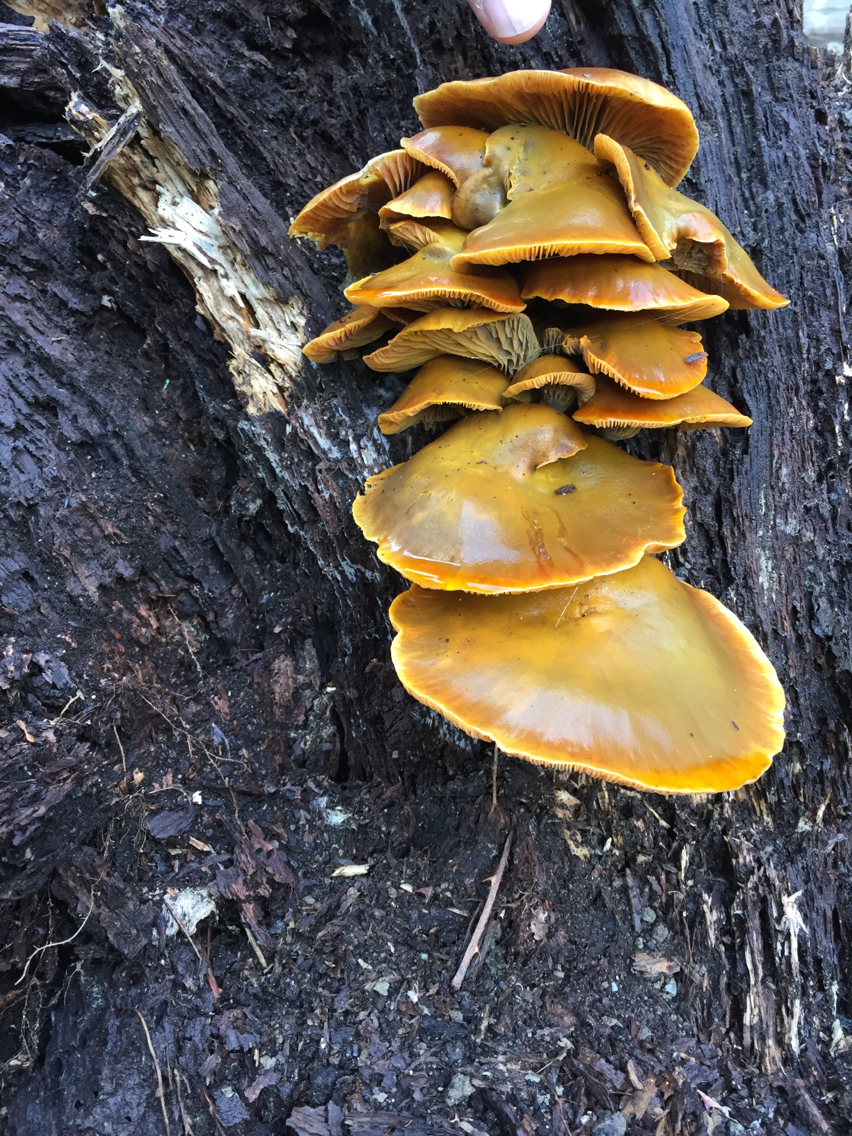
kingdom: Fungi
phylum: Basidiomycota
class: Agaricomycetes
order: Agaricales
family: Omphalotaceae
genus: Omphalotus
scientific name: Omphalotus olivascens
